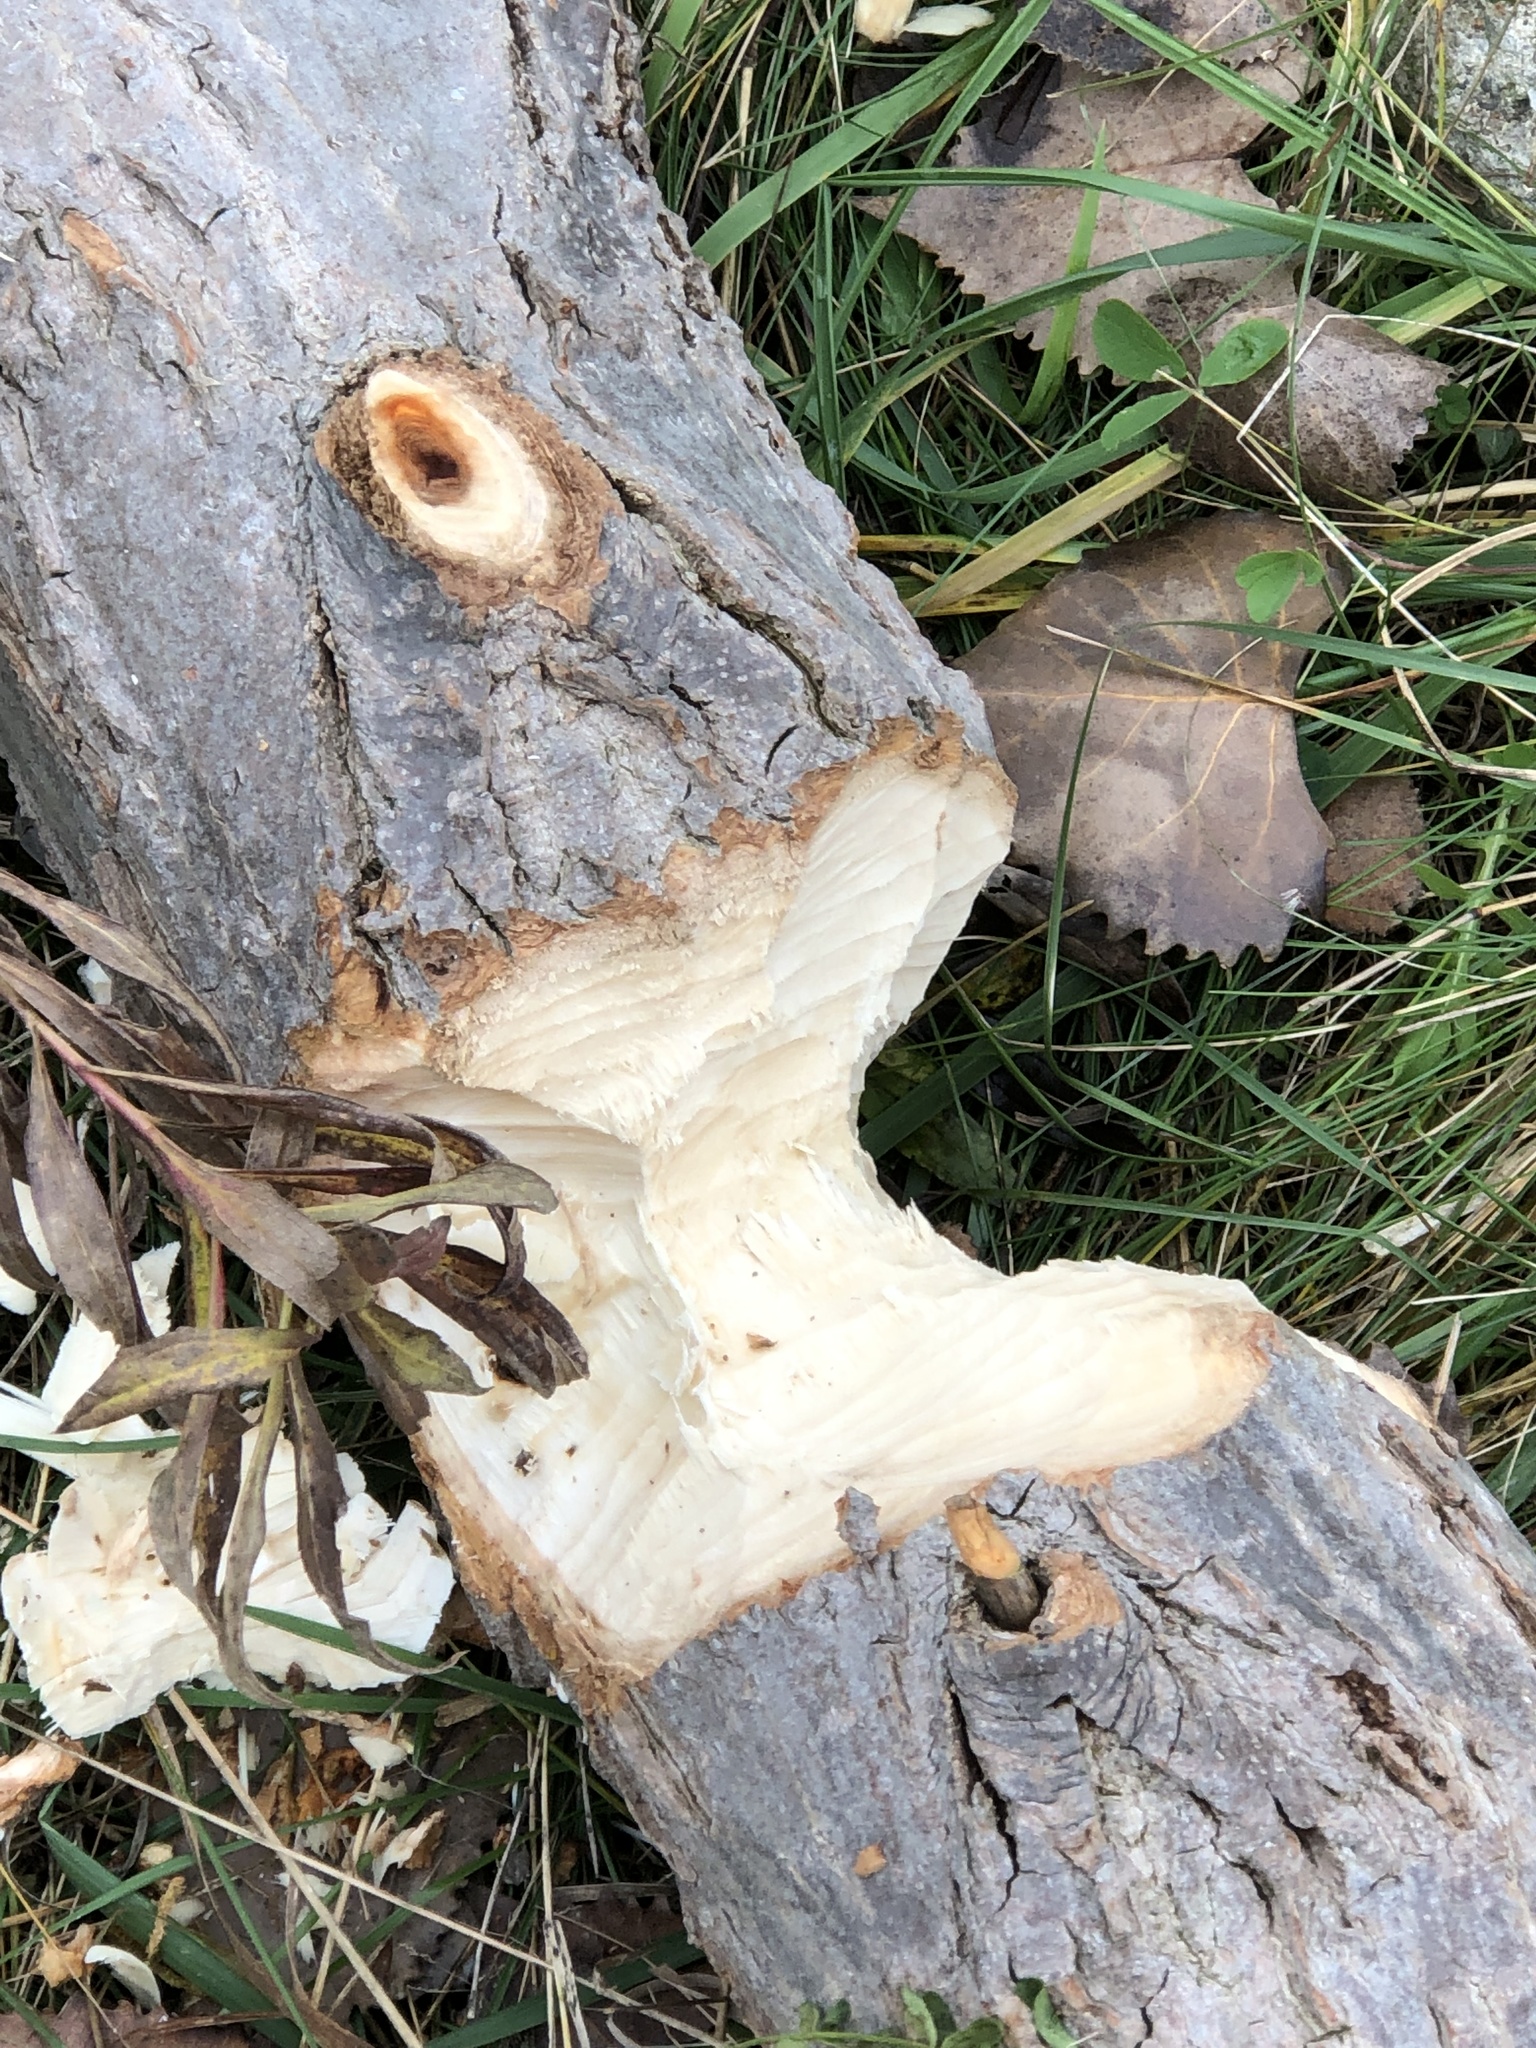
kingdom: Animalia
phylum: Chordata
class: Mammalia
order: Rodentia
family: Castoridae
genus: Castor
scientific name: Castor canadensis
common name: American beaver
